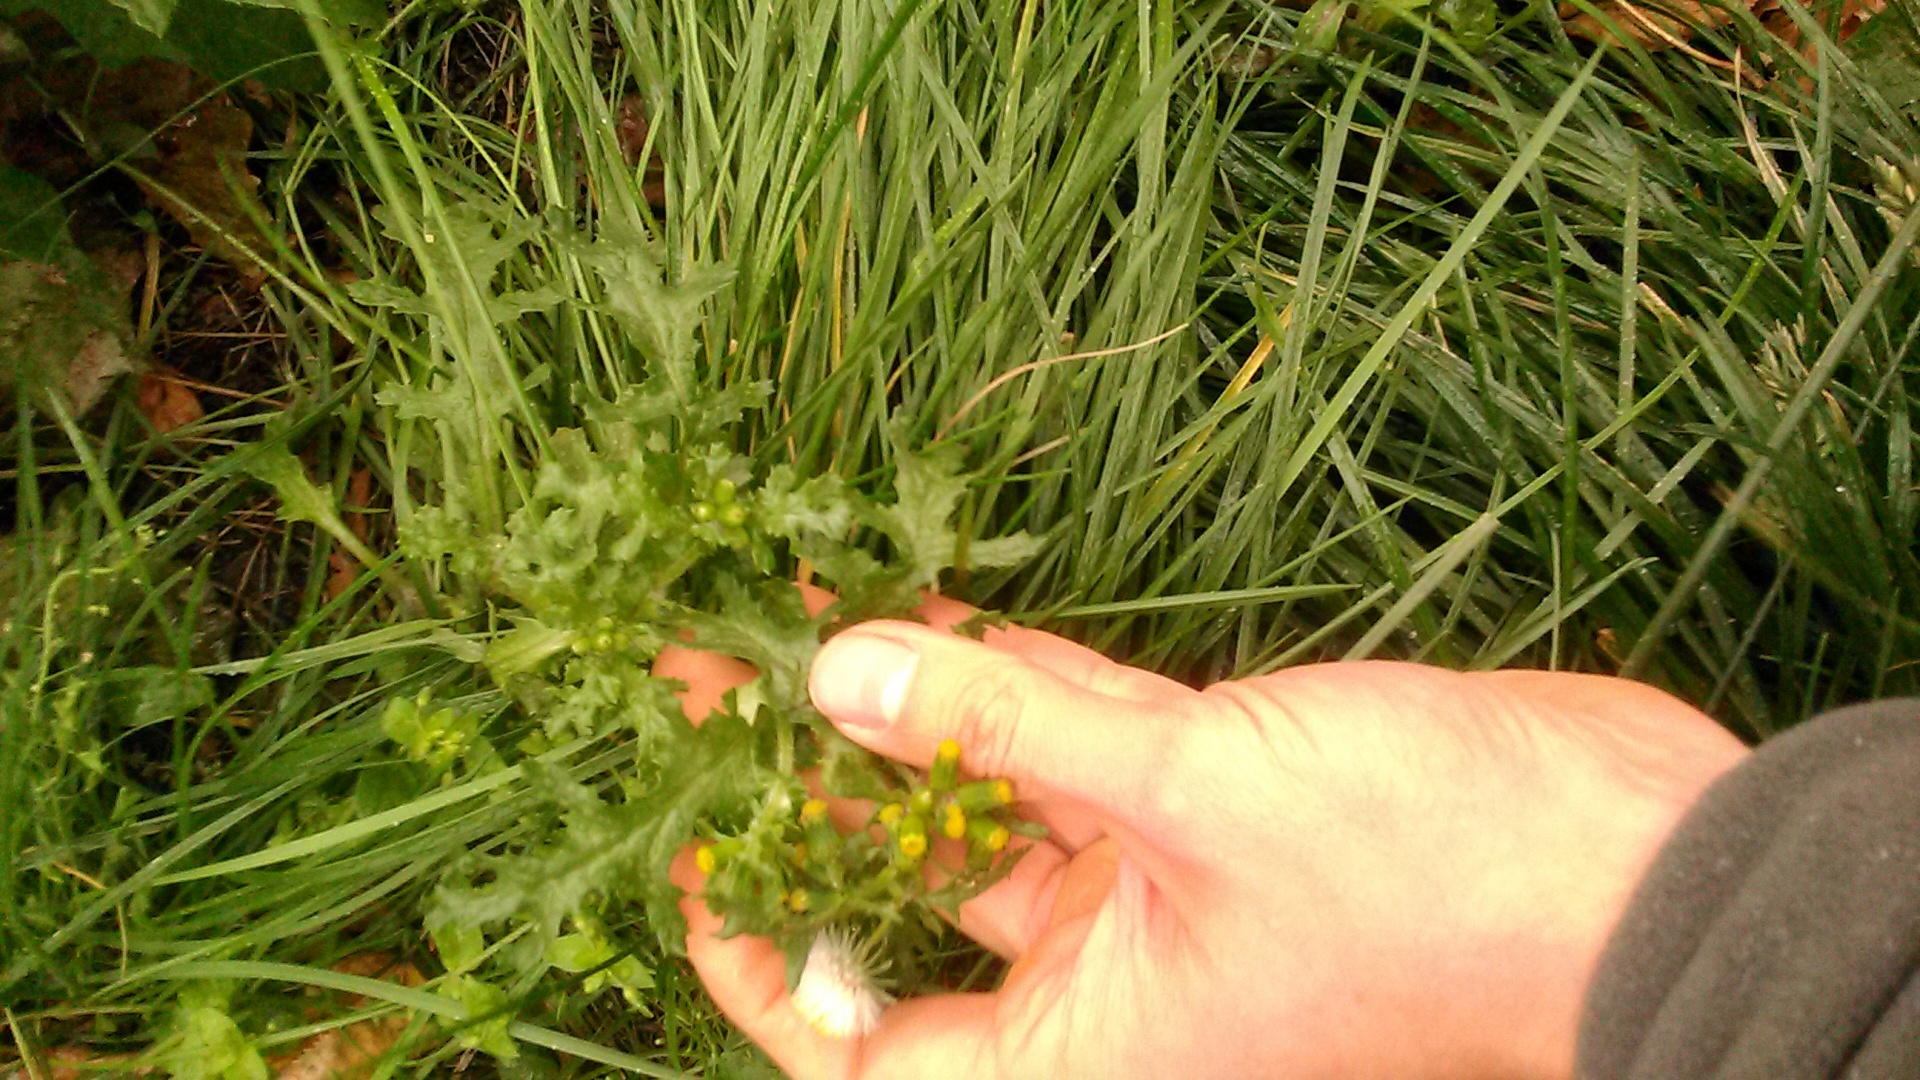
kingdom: Plantae
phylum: Tracheophyta
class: Magnoliopsida
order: Asterales
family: Asteraceae
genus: Senecio
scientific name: Senecio vulgaris
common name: Old-man-in-the-spring
